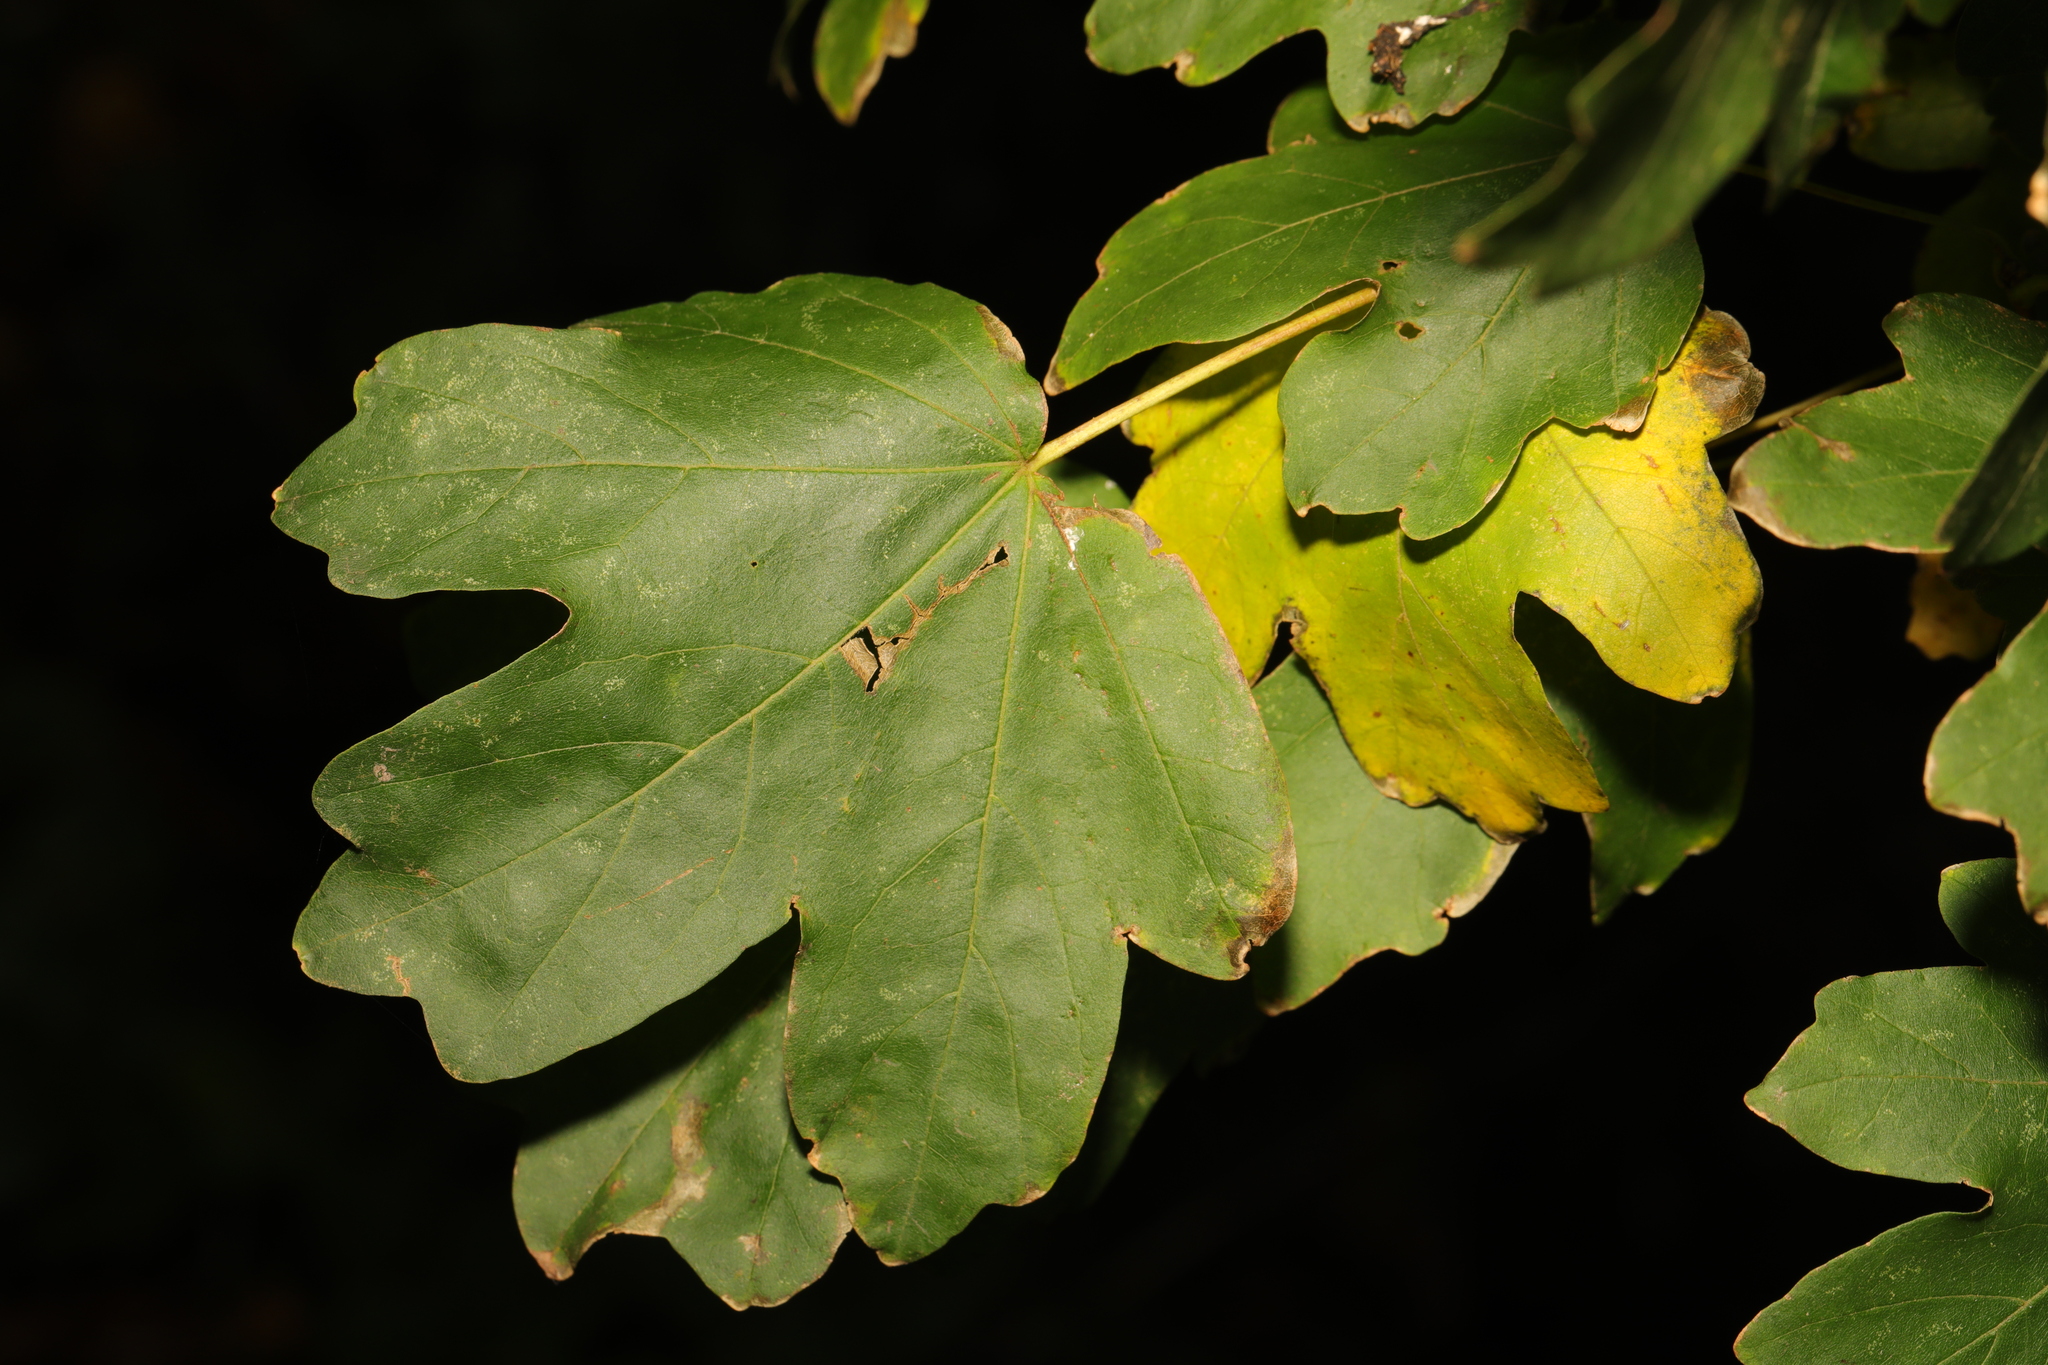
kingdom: Plantae
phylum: Tracheophyta
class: Magnoliopsida
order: Sapindales
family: Sapindaceae
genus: Acer
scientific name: Acer campestre
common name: Field maple
